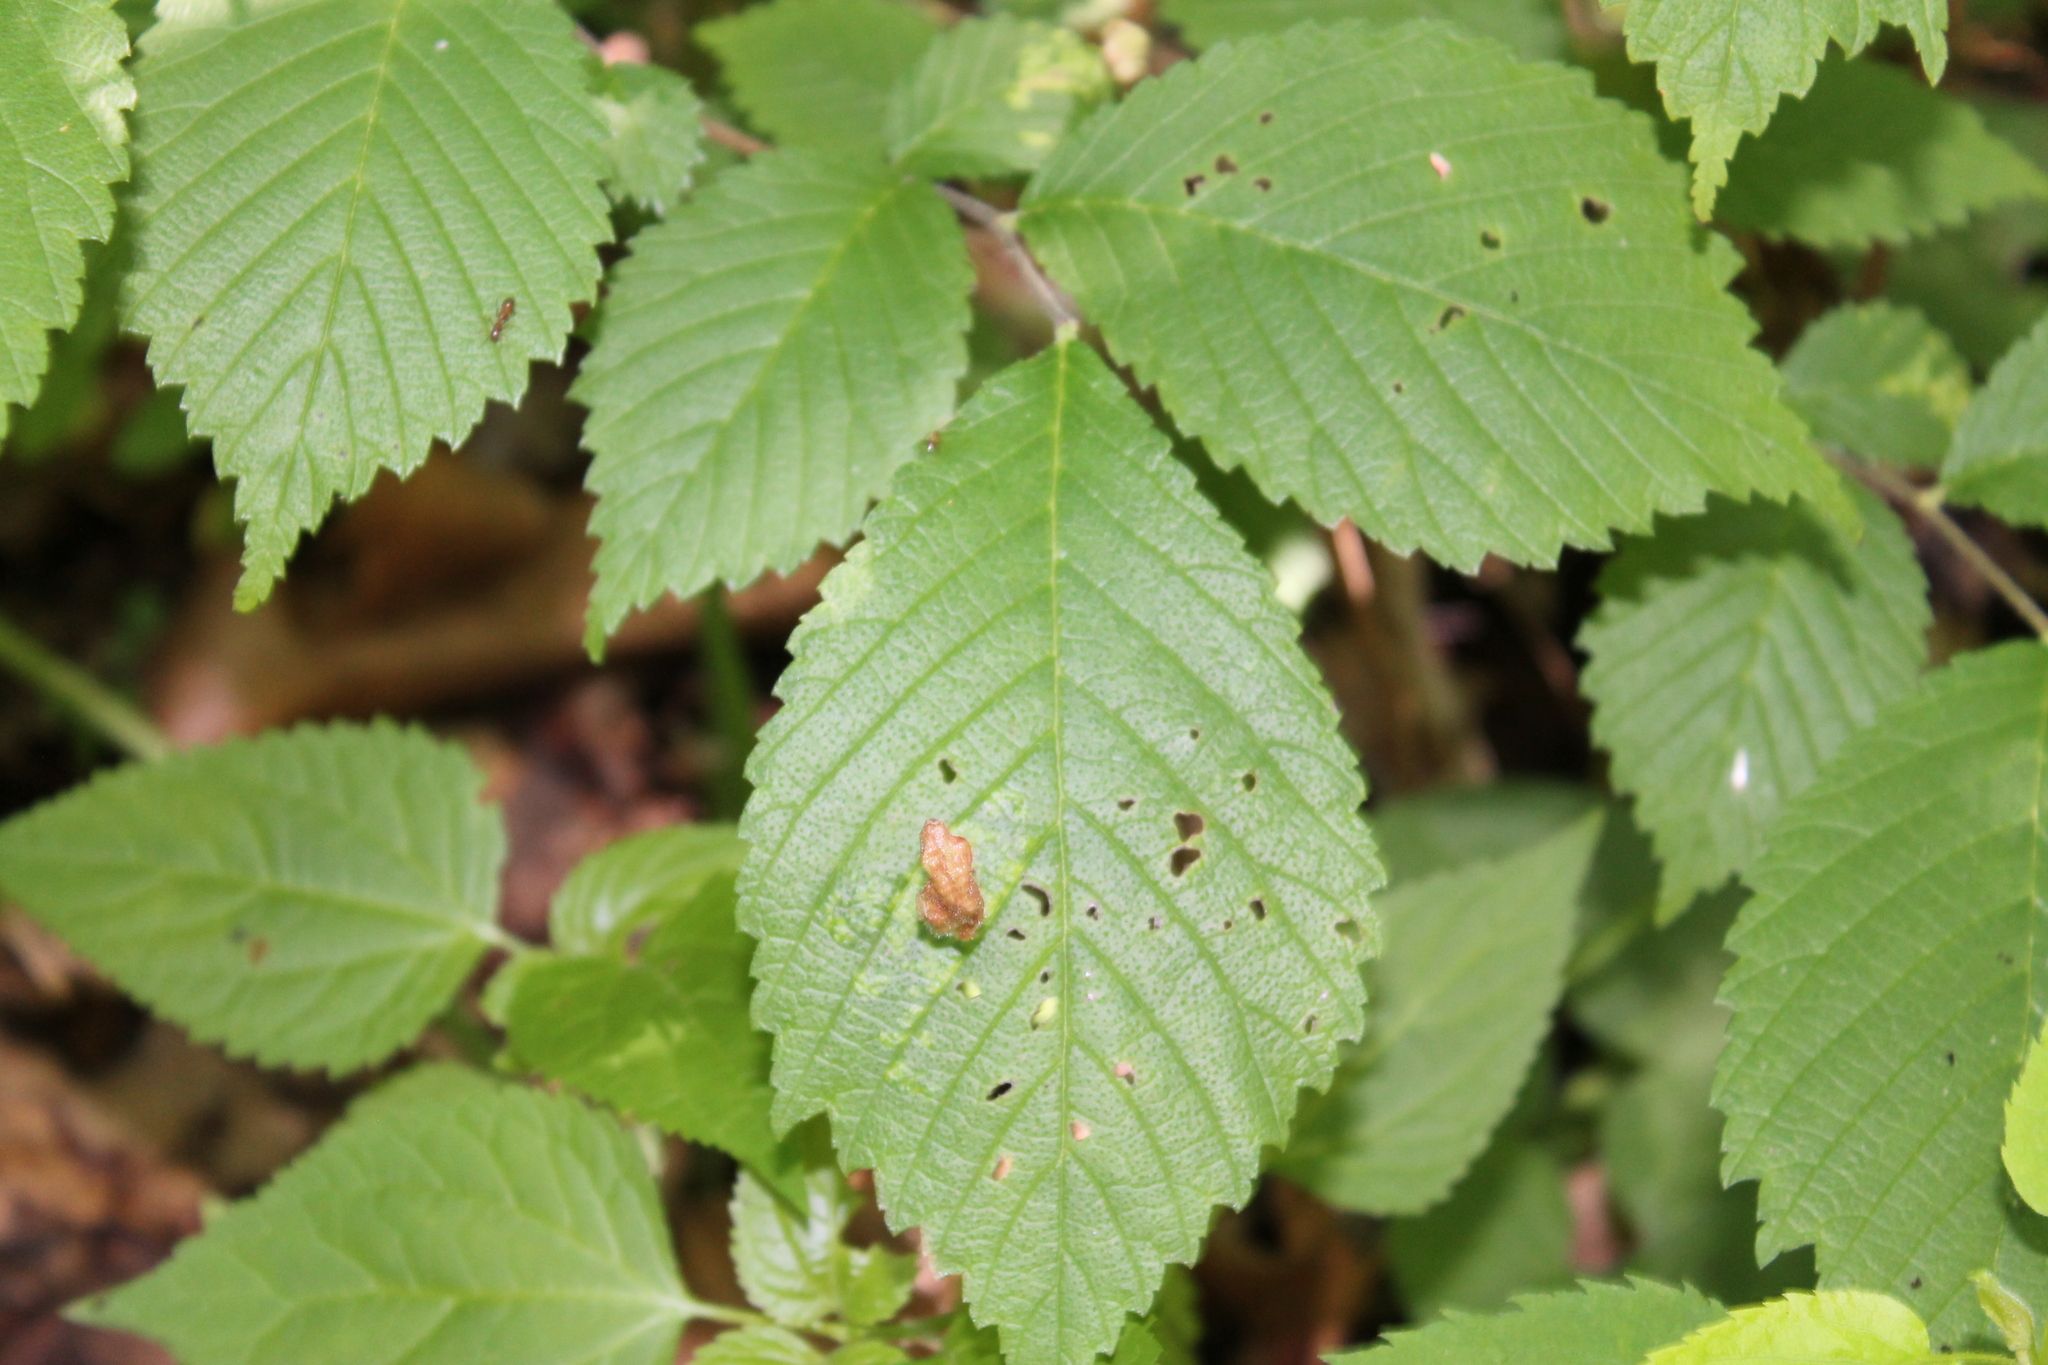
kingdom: Animalia
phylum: Arthropoda
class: Insecta
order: Hemiptera
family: Aphididae
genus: Tetraneura
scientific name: Tetraneura nigriabdominalis
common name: Aphid
